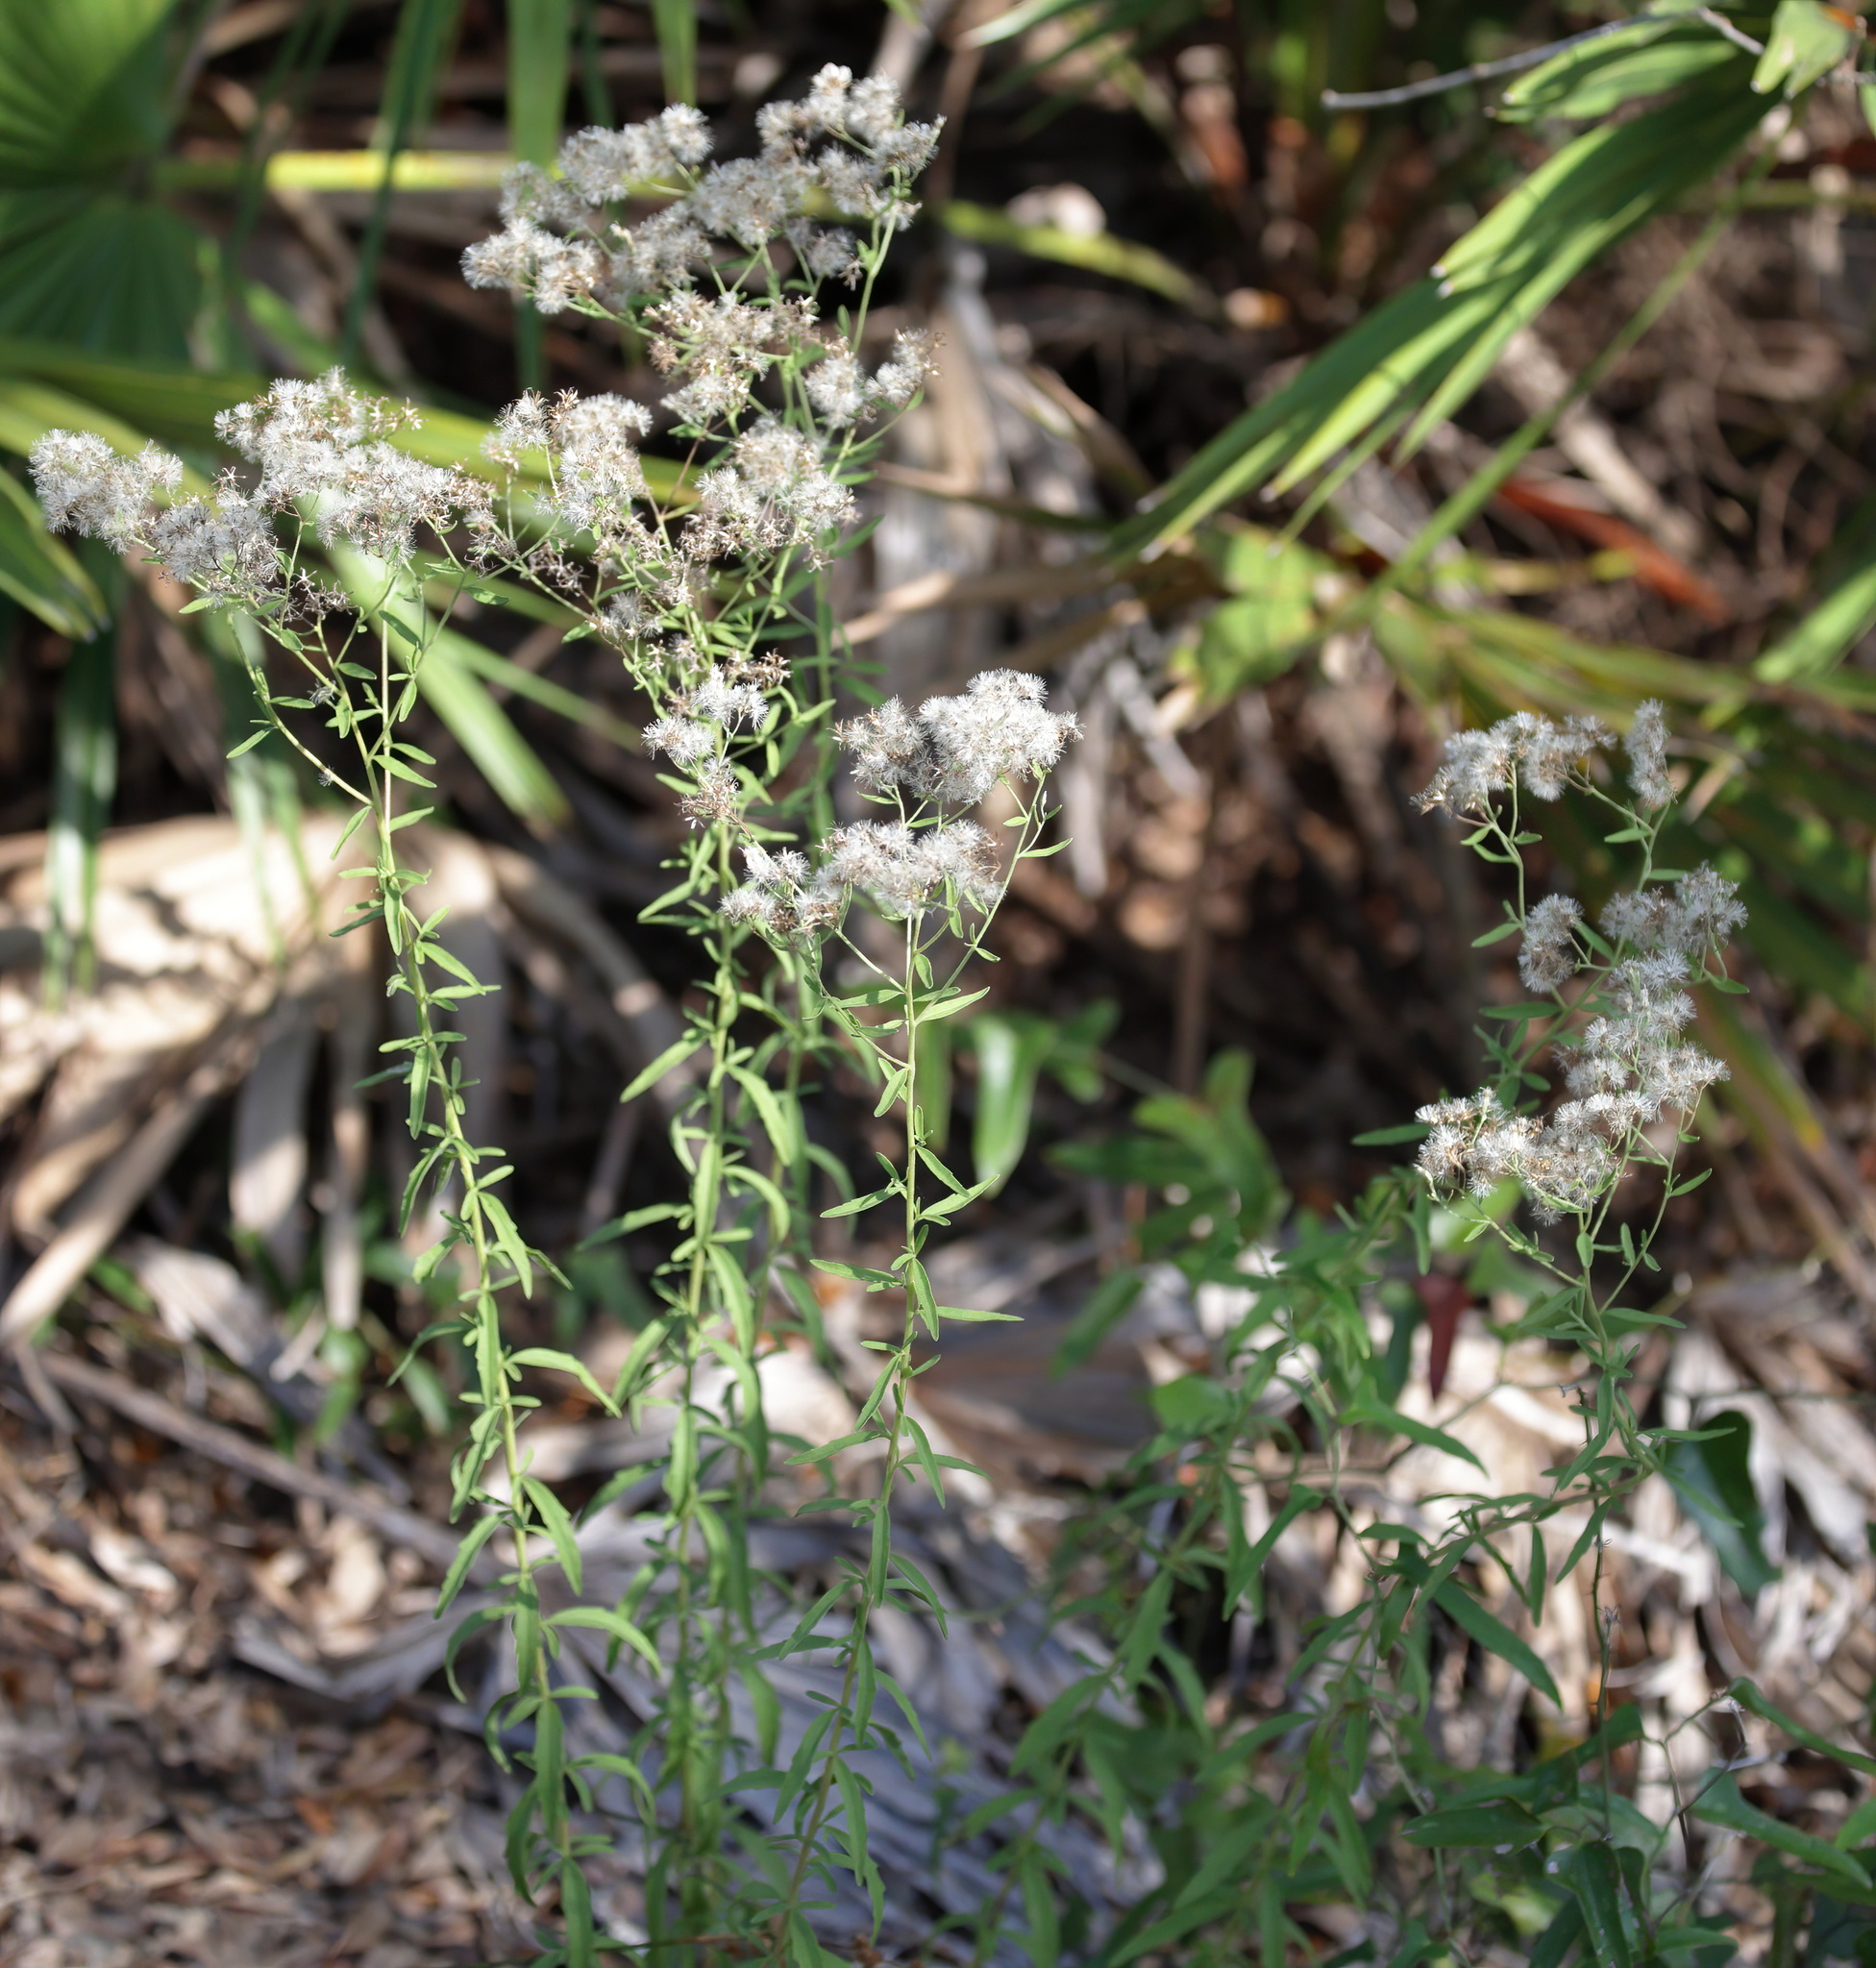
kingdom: Plantae
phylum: Tracheophyta
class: Magnoliopsida
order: Asterales
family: Asteraceae
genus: Eupatorium
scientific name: Eupatorium mohrii
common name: Mohr's thoroughwort
